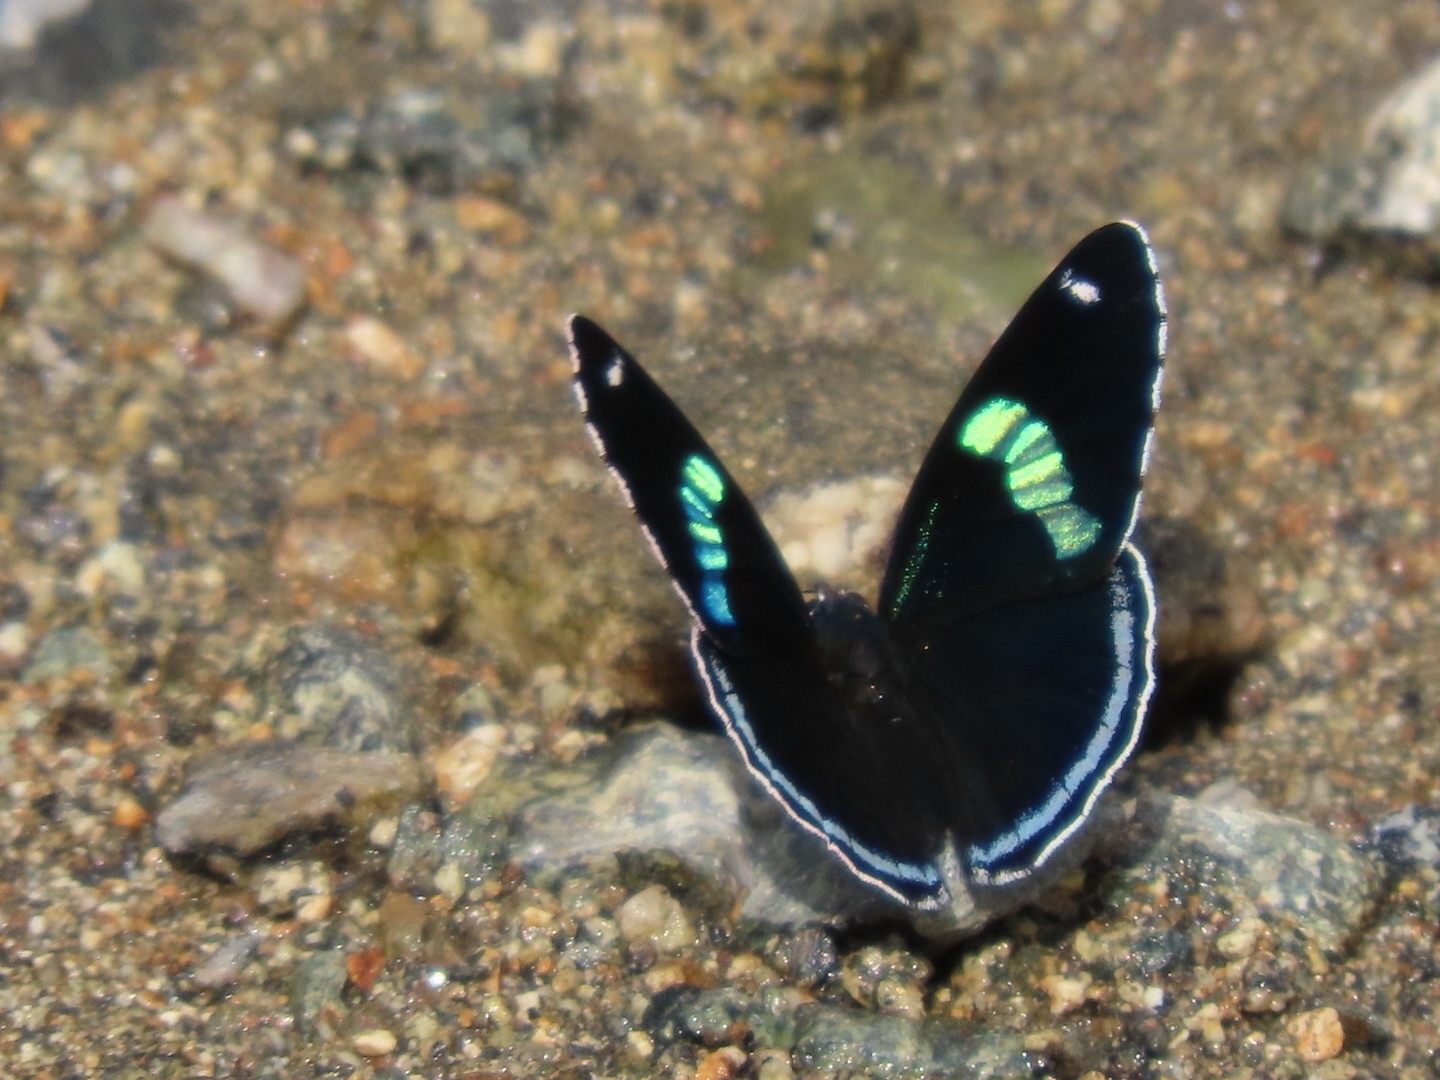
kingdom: Animalia
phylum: Arthropoda
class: Insecta
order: Lepidoptera
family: Nymphalidae
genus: Diaethria
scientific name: Diaethria anna
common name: Anna’s eighty-eight
